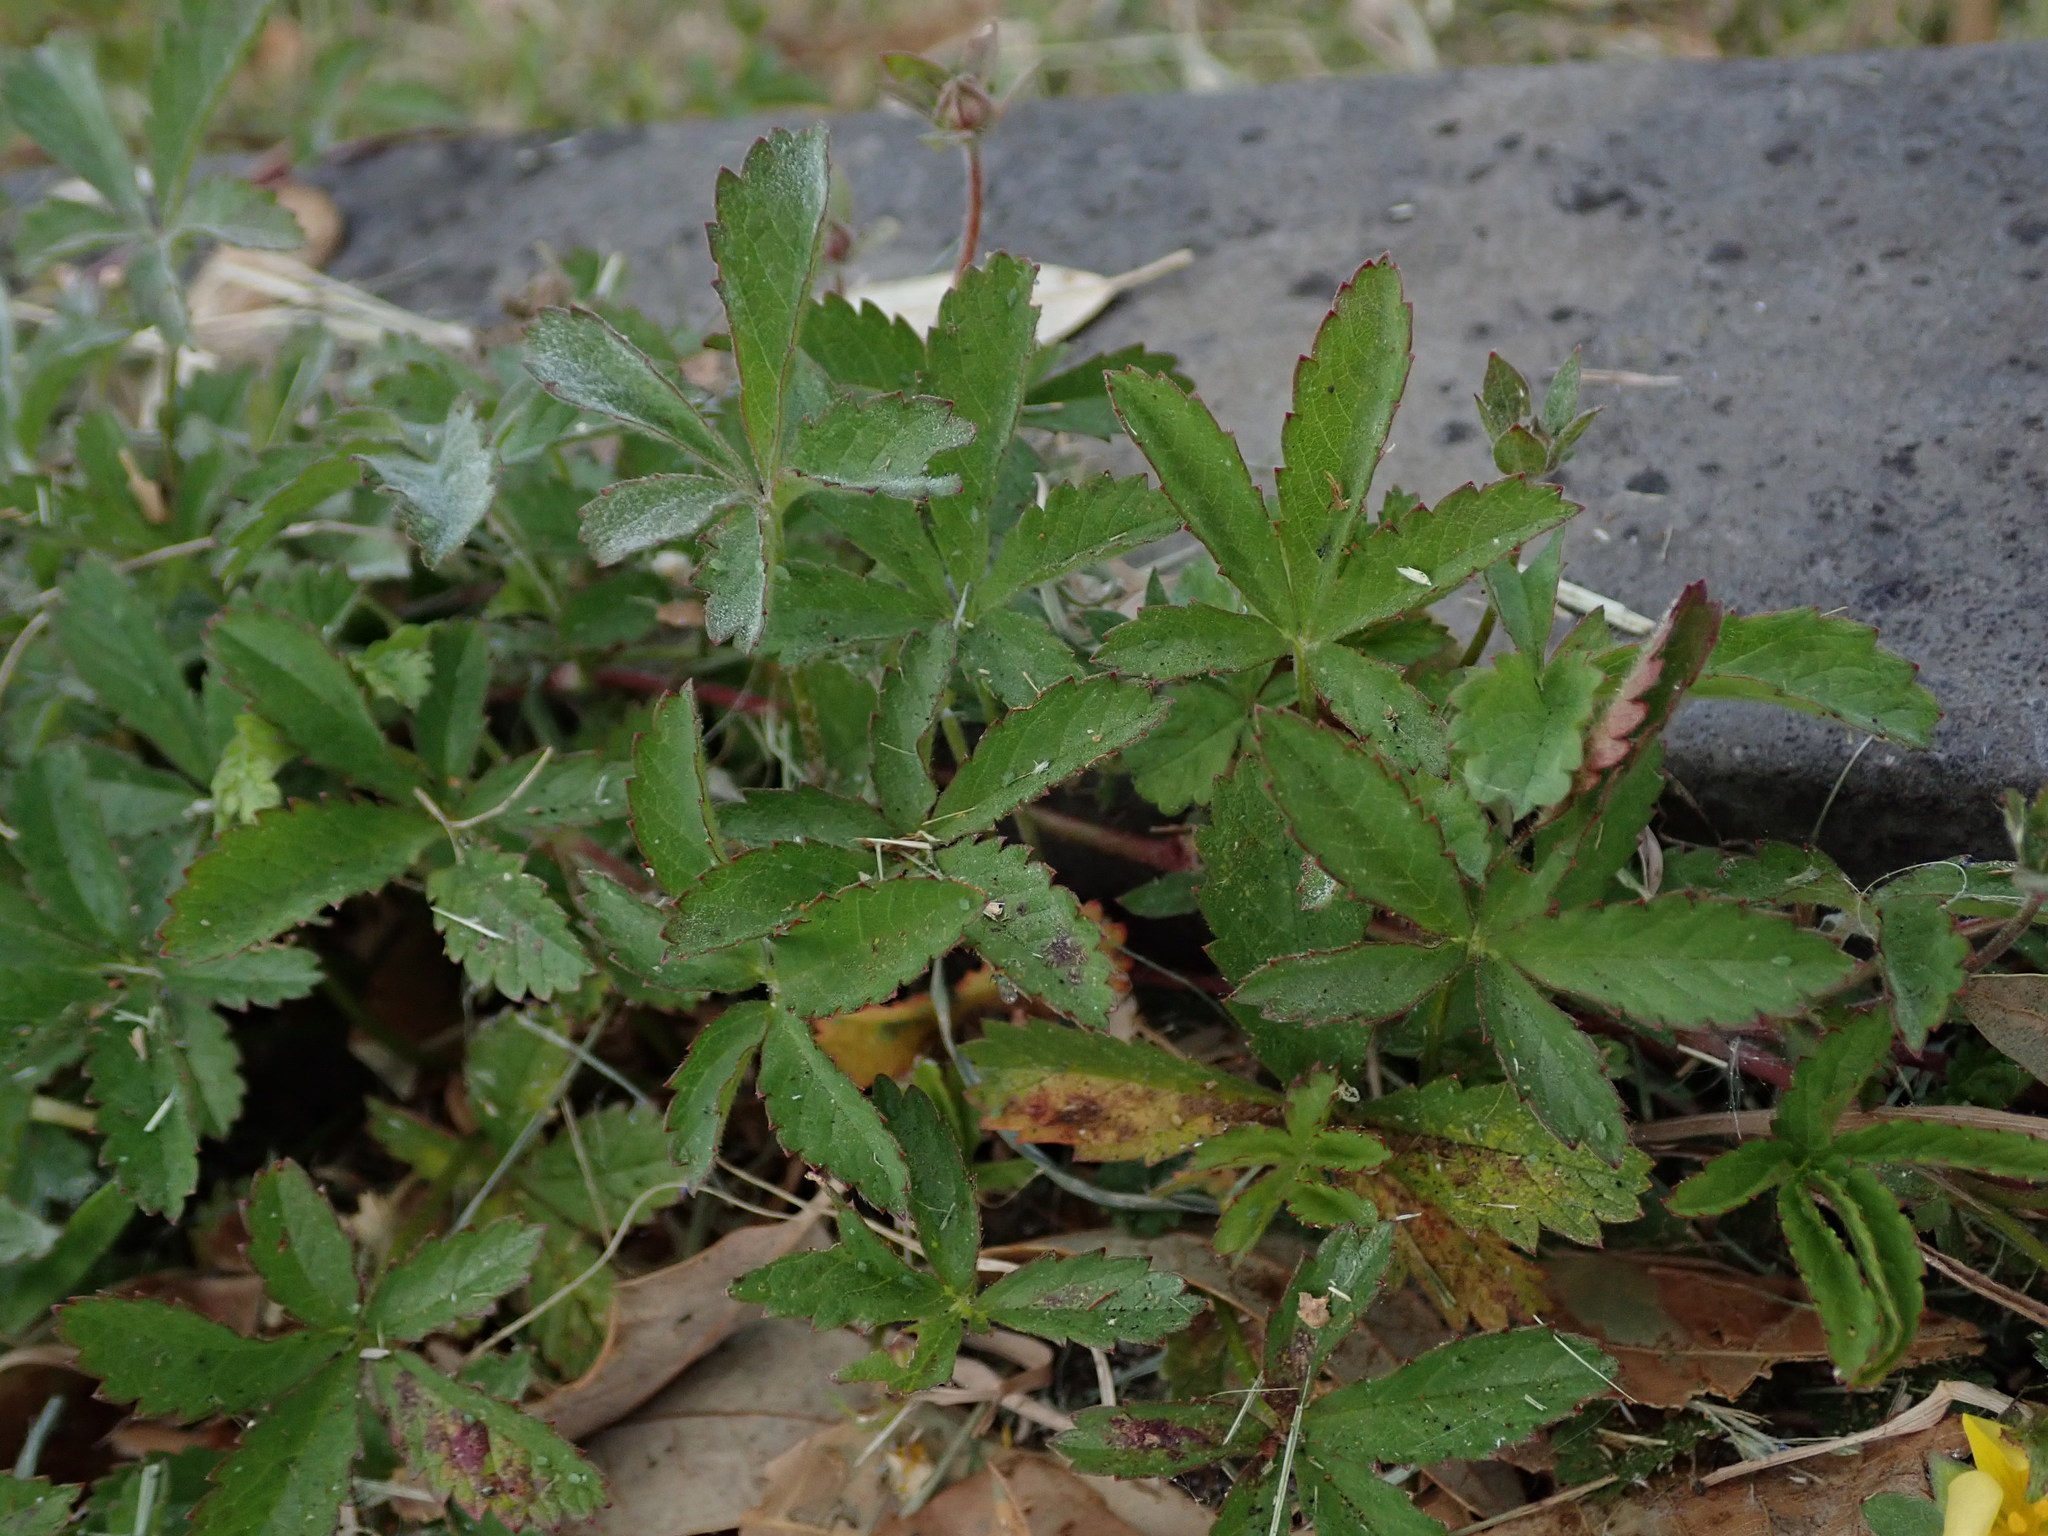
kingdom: Plantae
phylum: Tracheophyta
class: Magnoliopsida
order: Rosales
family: Rosaceae
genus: Potentilla
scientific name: Potentilla reptans
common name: Creeping cinquefoil
